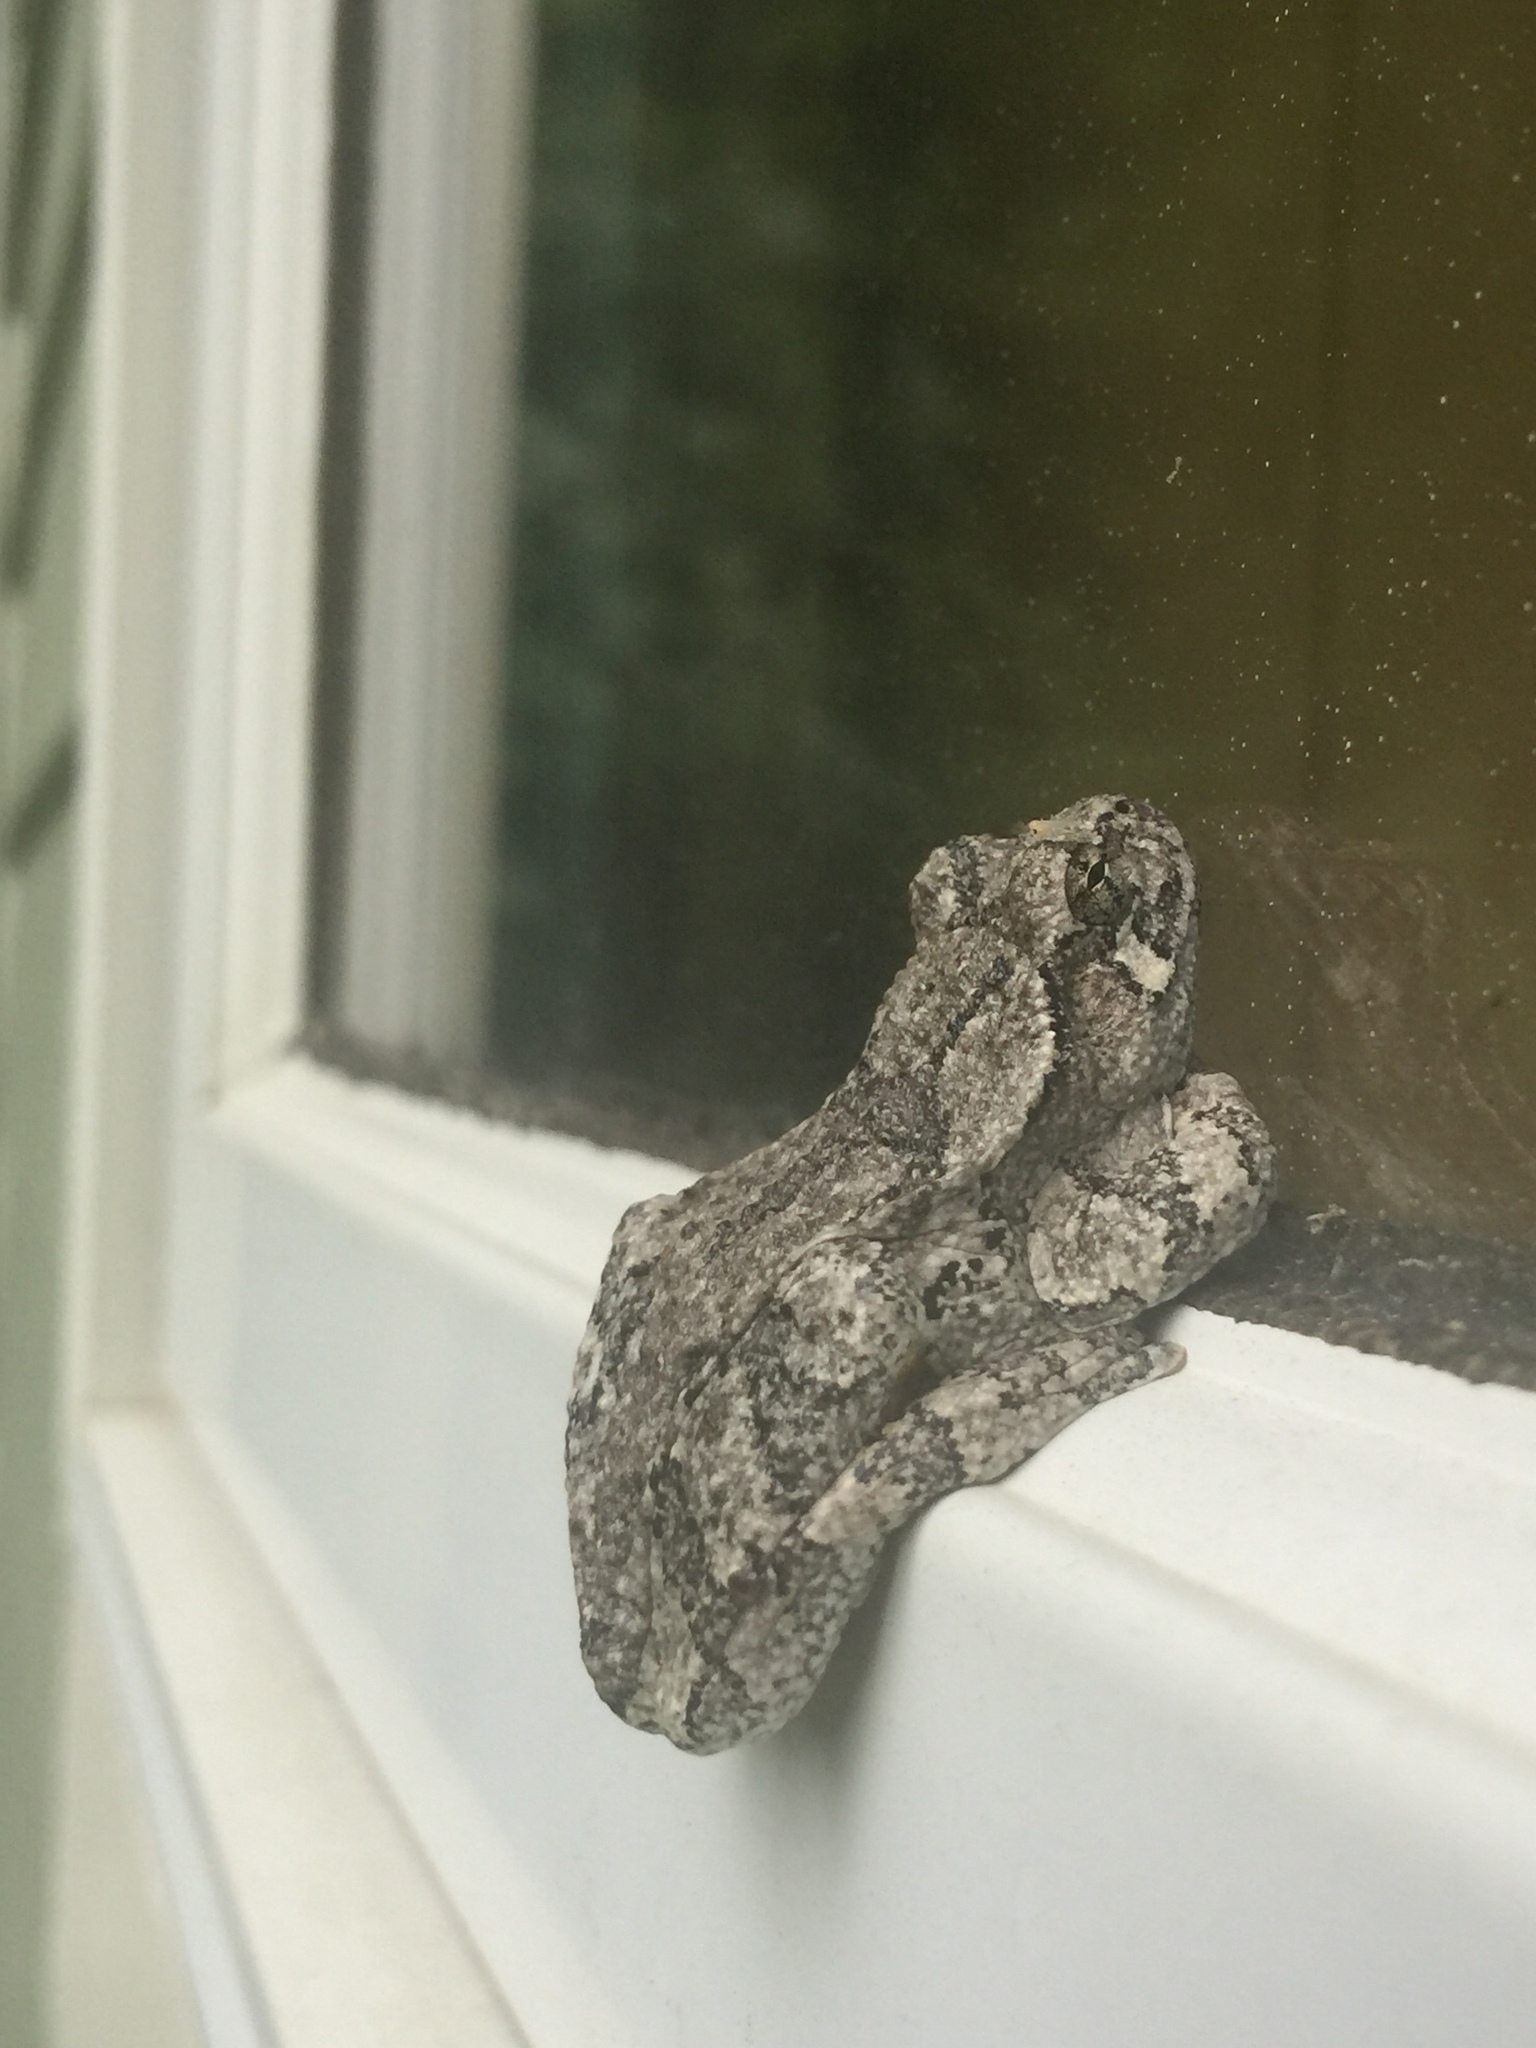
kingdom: Animalia
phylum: Chordata
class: Amphibia
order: Anura
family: Hylidae
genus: Dryophytes
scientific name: Dryophytes versicolor
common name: Gray treefrog
